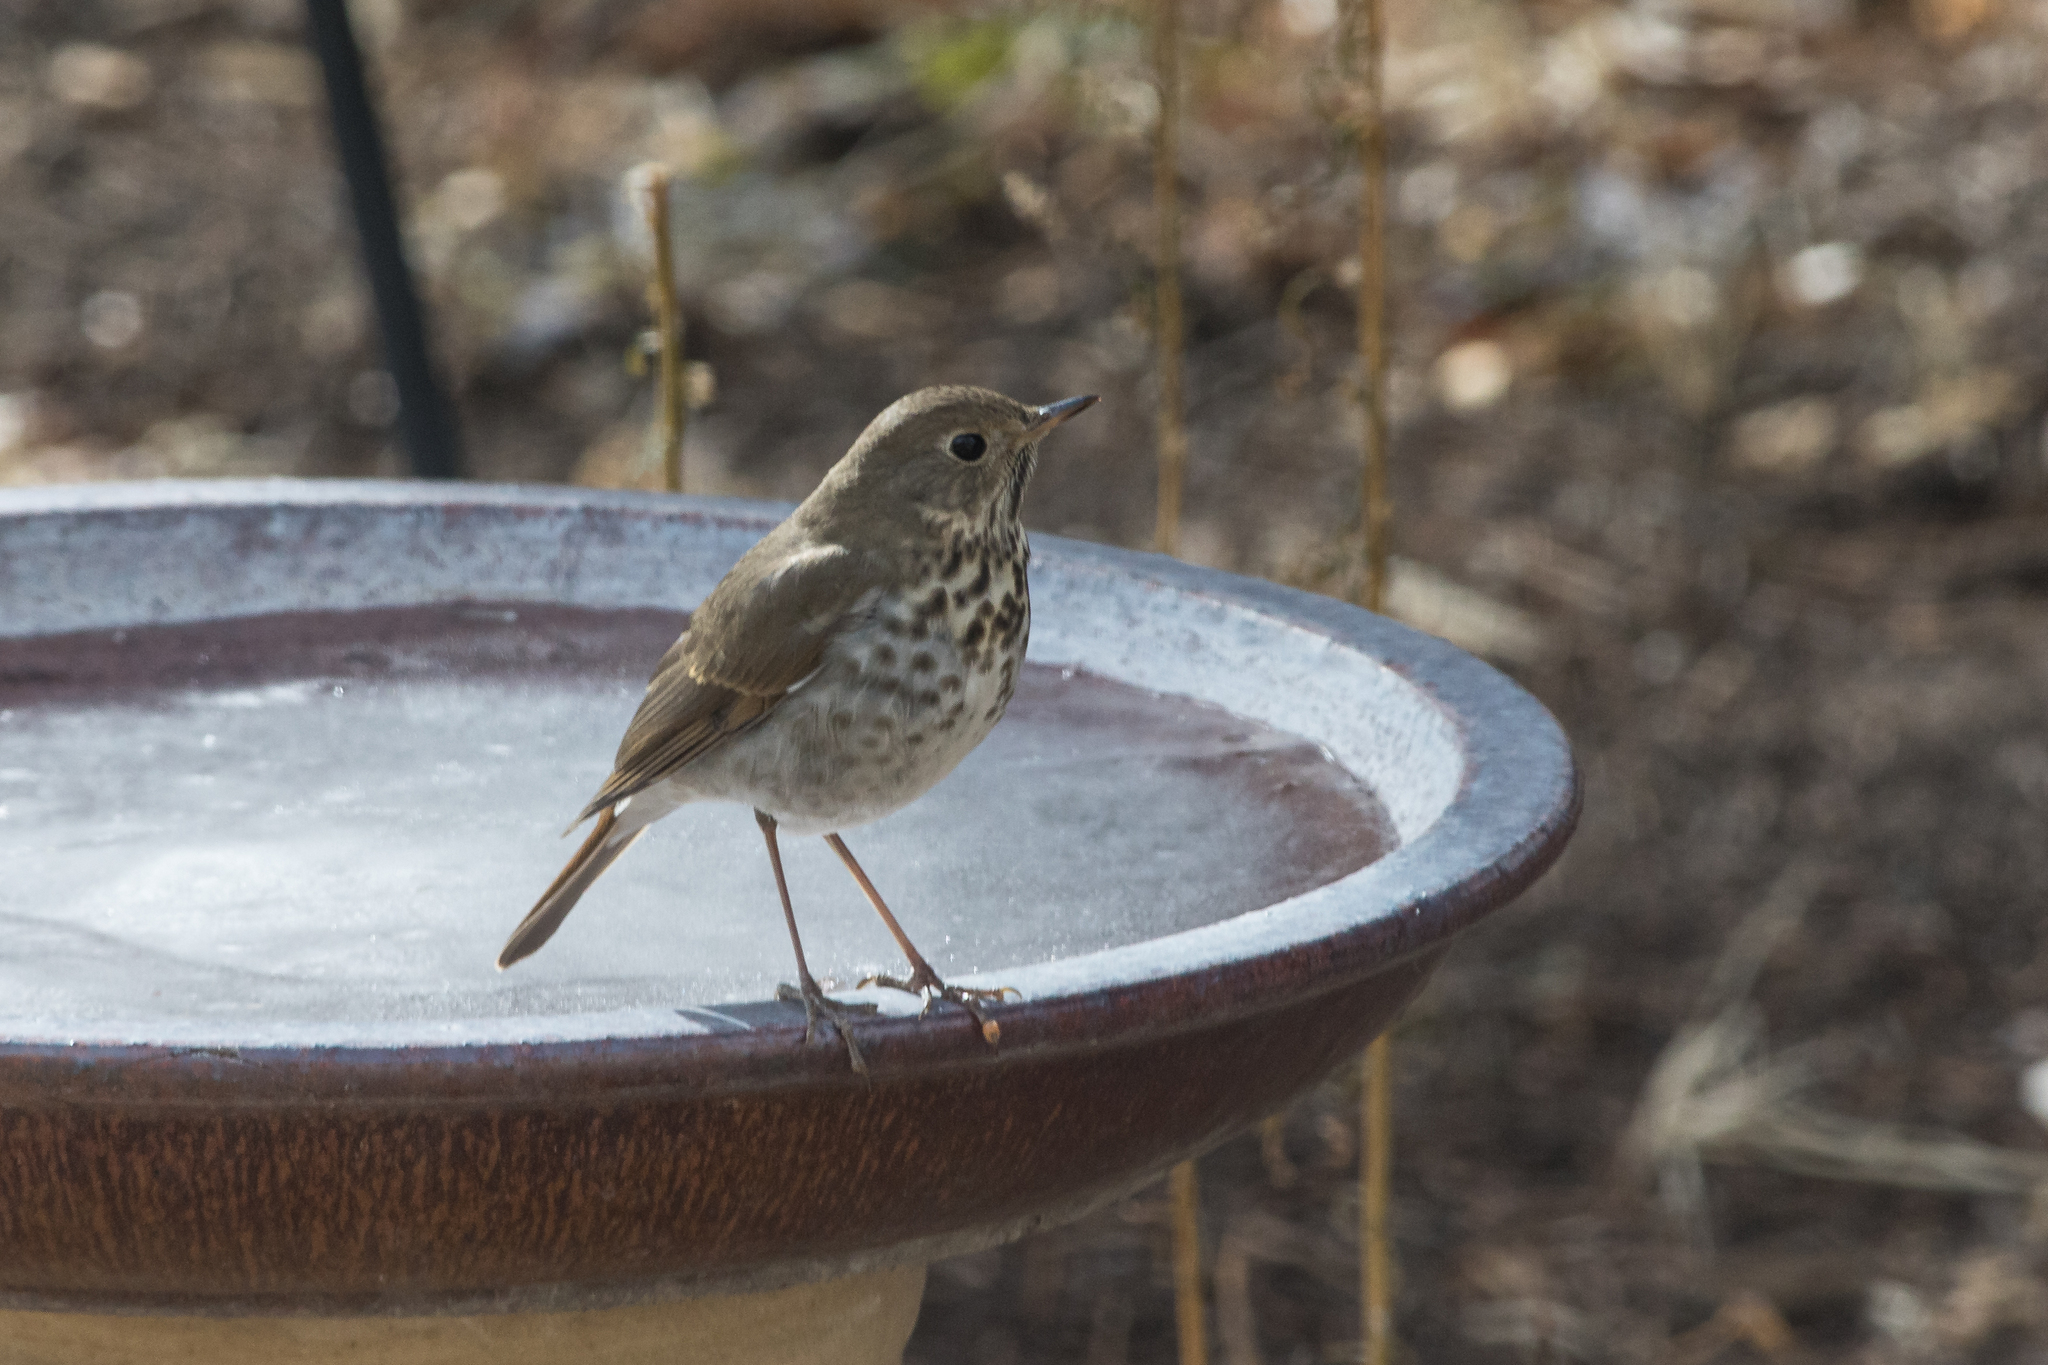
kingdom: Animalia
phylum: Chordata
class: Aves
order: Passeriformes
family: Turdidae
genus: Catharus
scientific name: Catharus guttatus
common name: Hermit thrush
